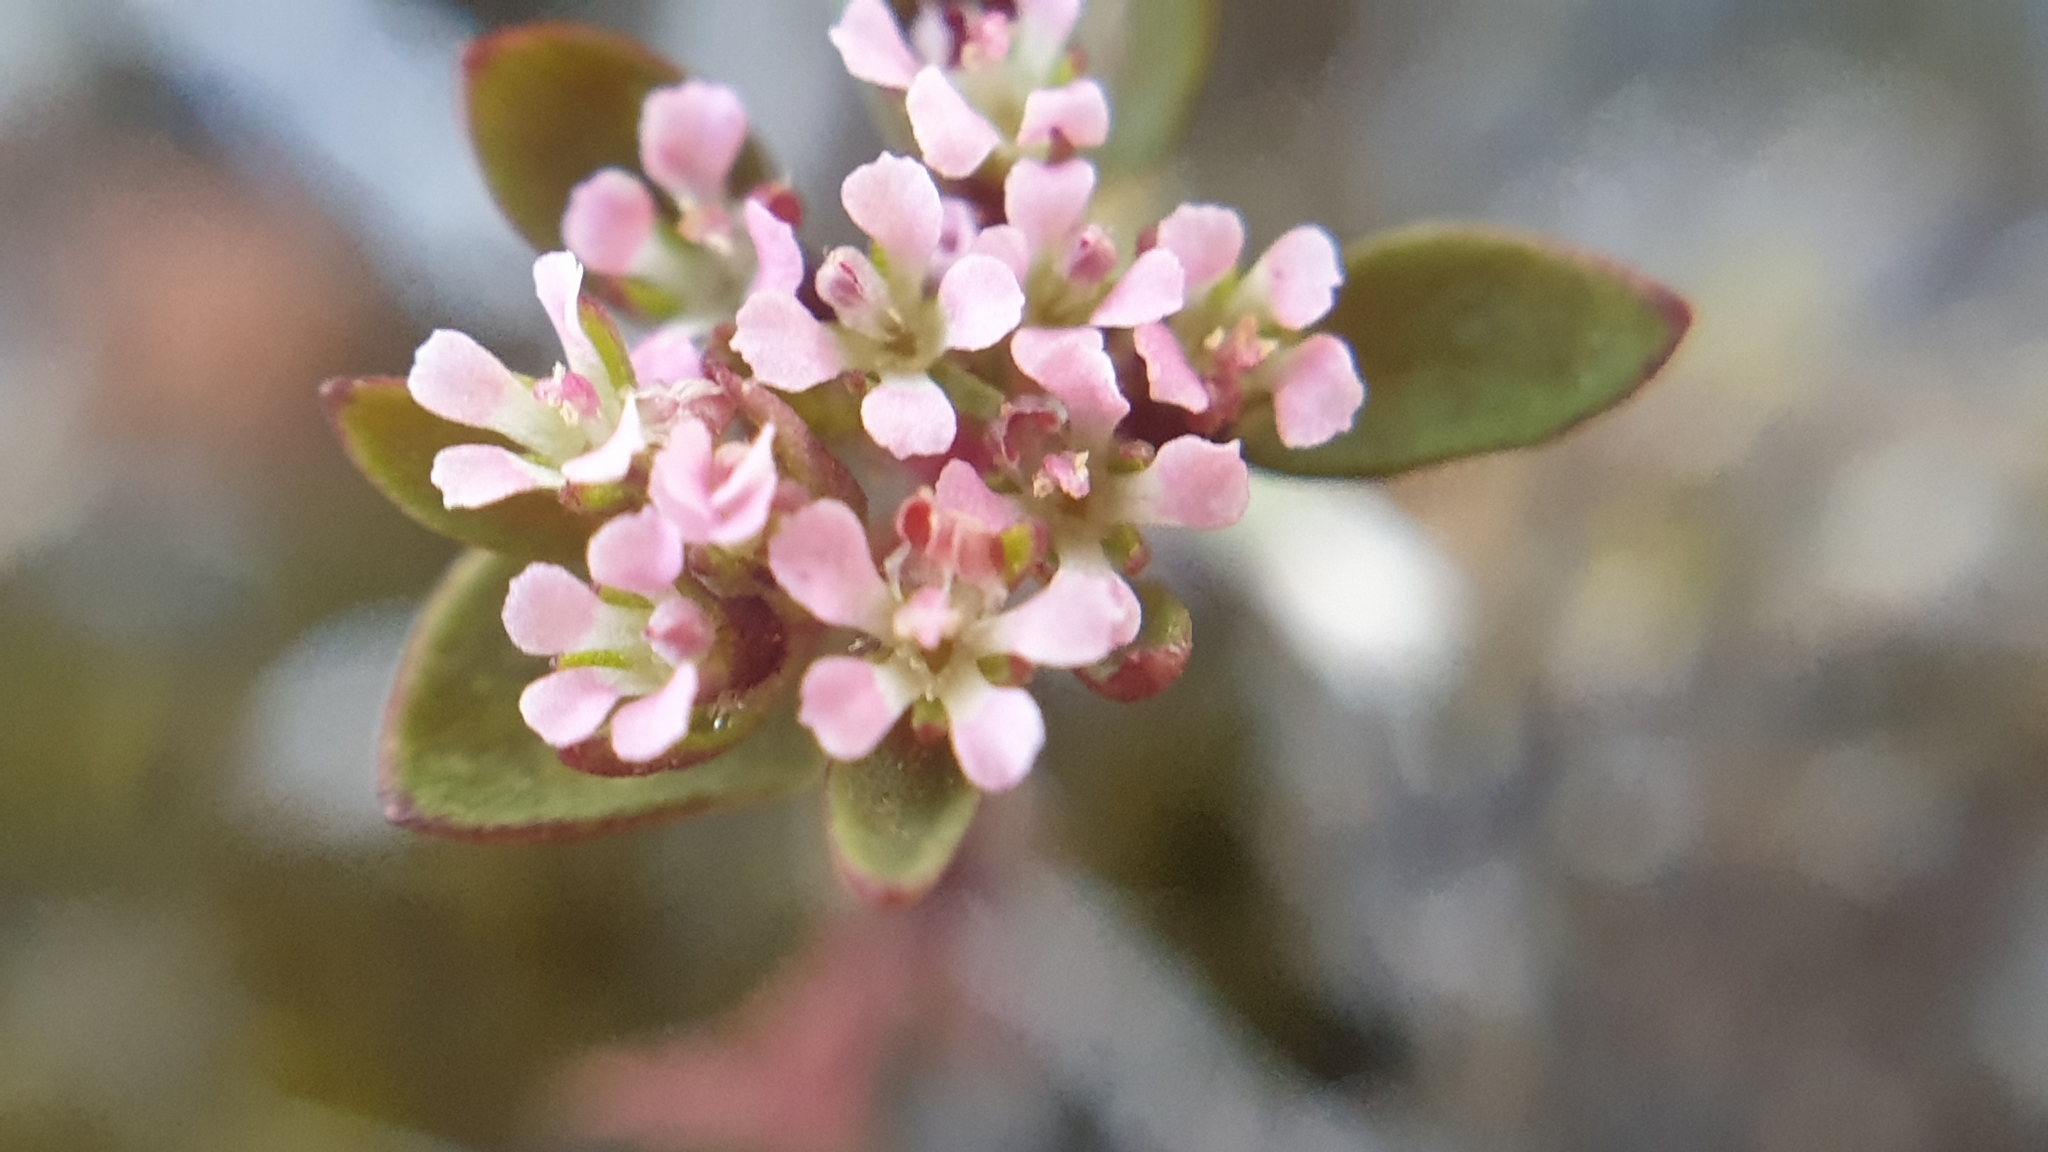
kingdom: Plantae
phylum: Tracheophyta
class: Magnoliopsida
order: Asterales
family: Stylidiaceae
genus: Levenhookia
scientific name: Levenhookia pusilla
